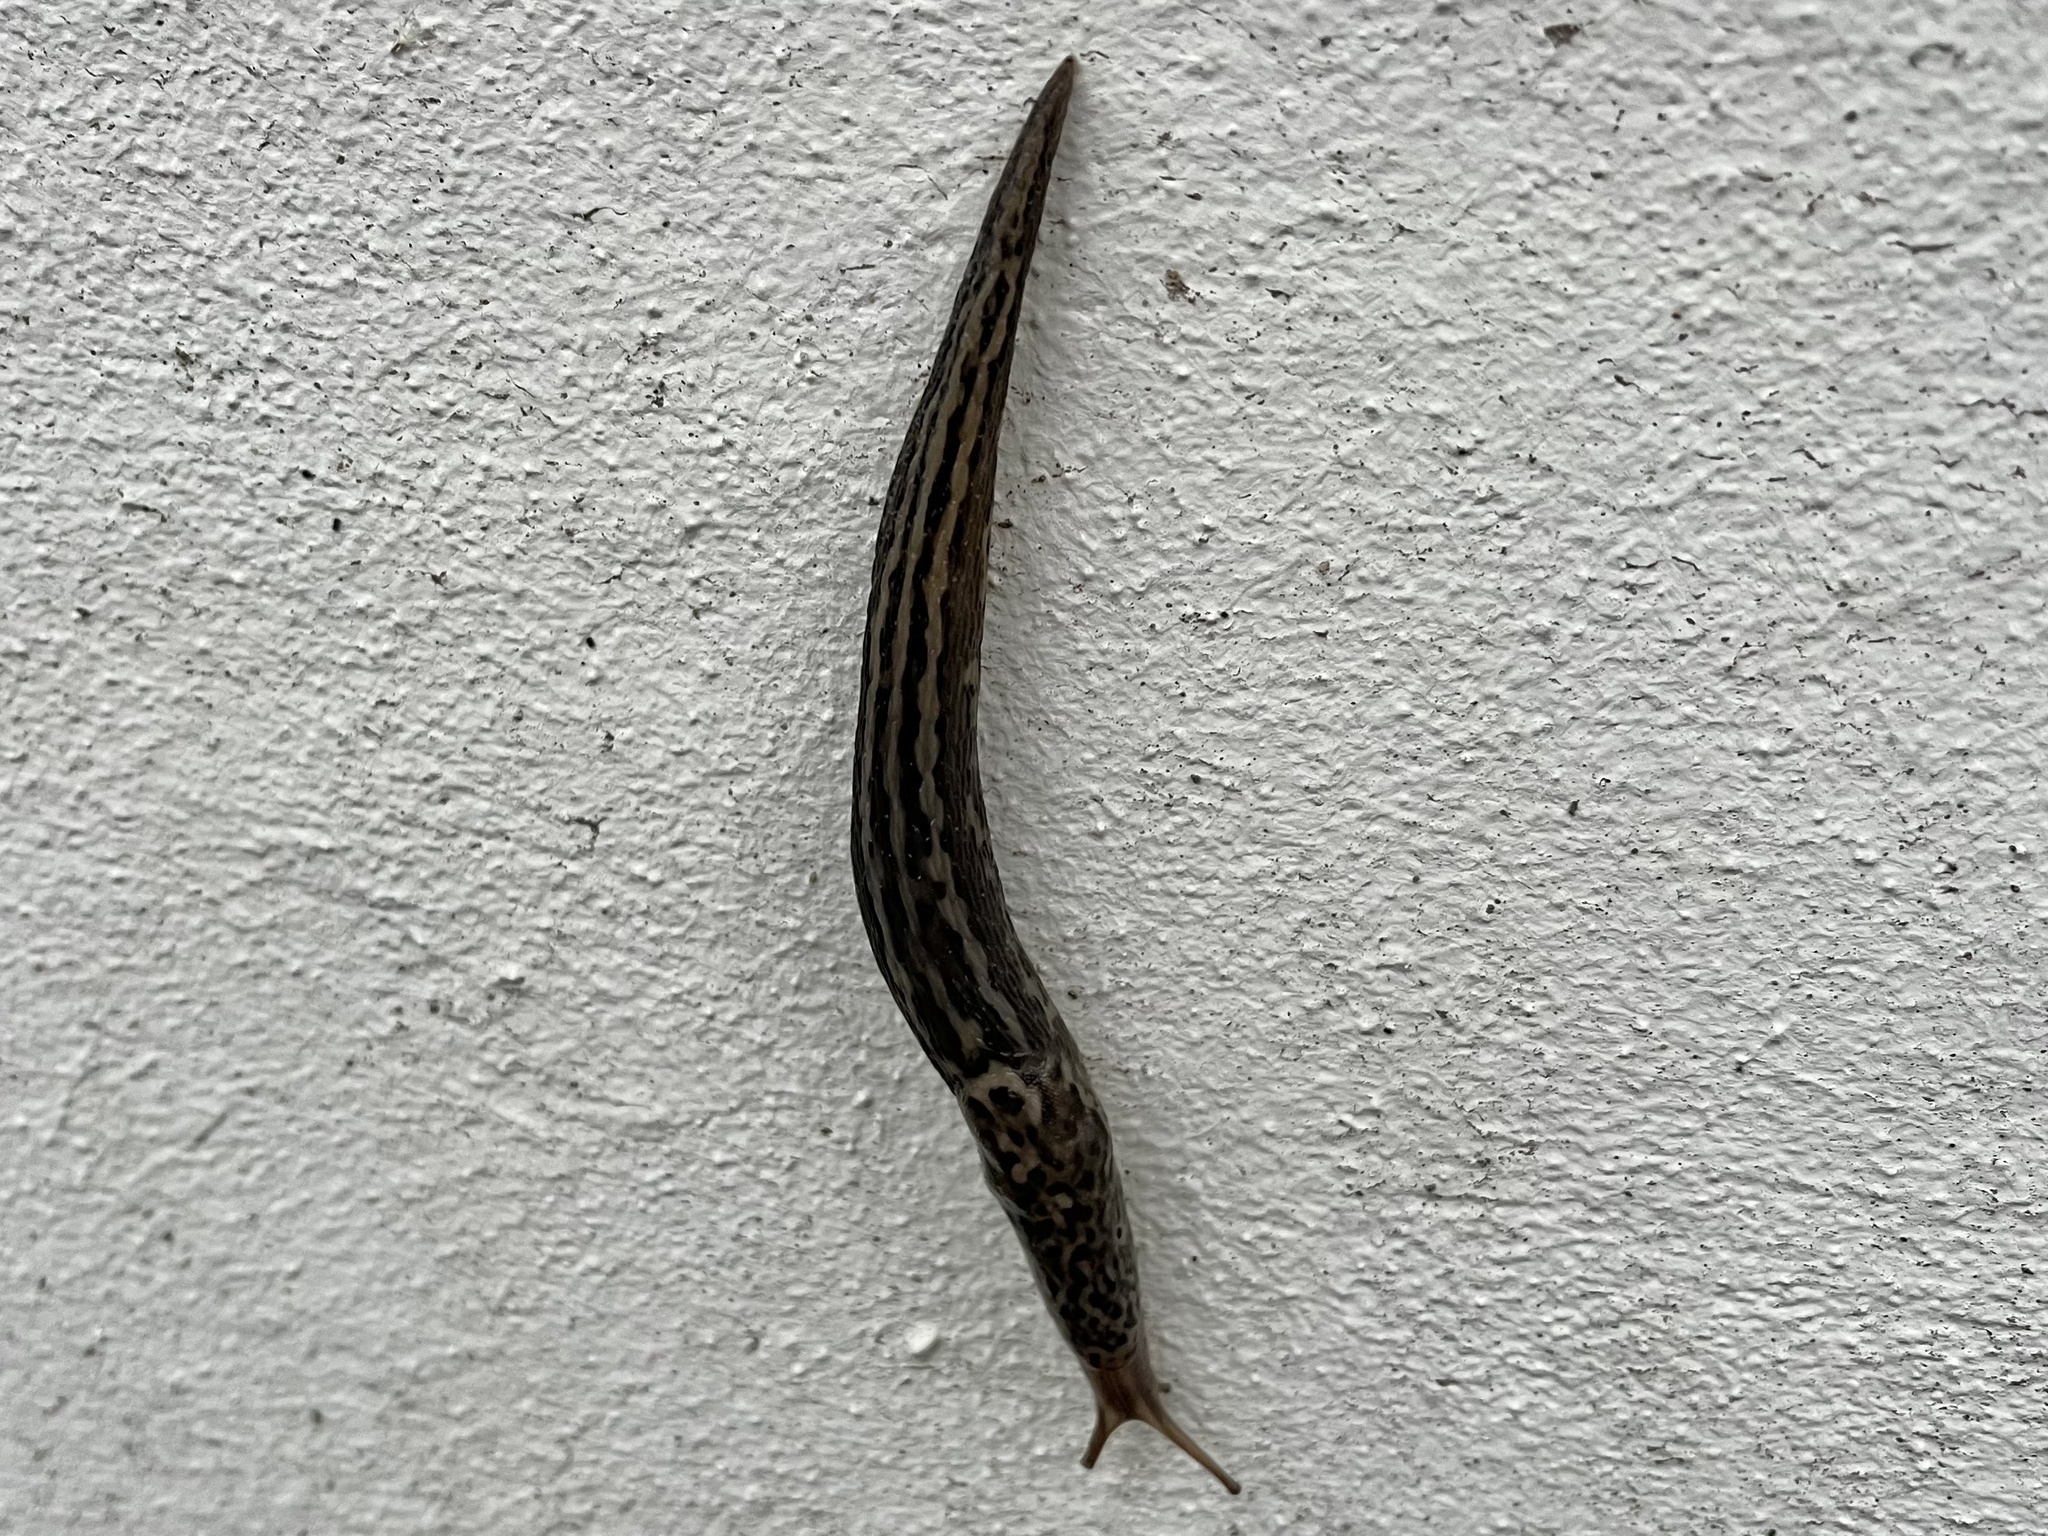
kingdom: Animalia
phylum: Mollusca
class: Gastropoda
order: Stylommatophora
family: Limacidae
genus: Limax
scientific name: Limax maximus
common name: Great grey slug
